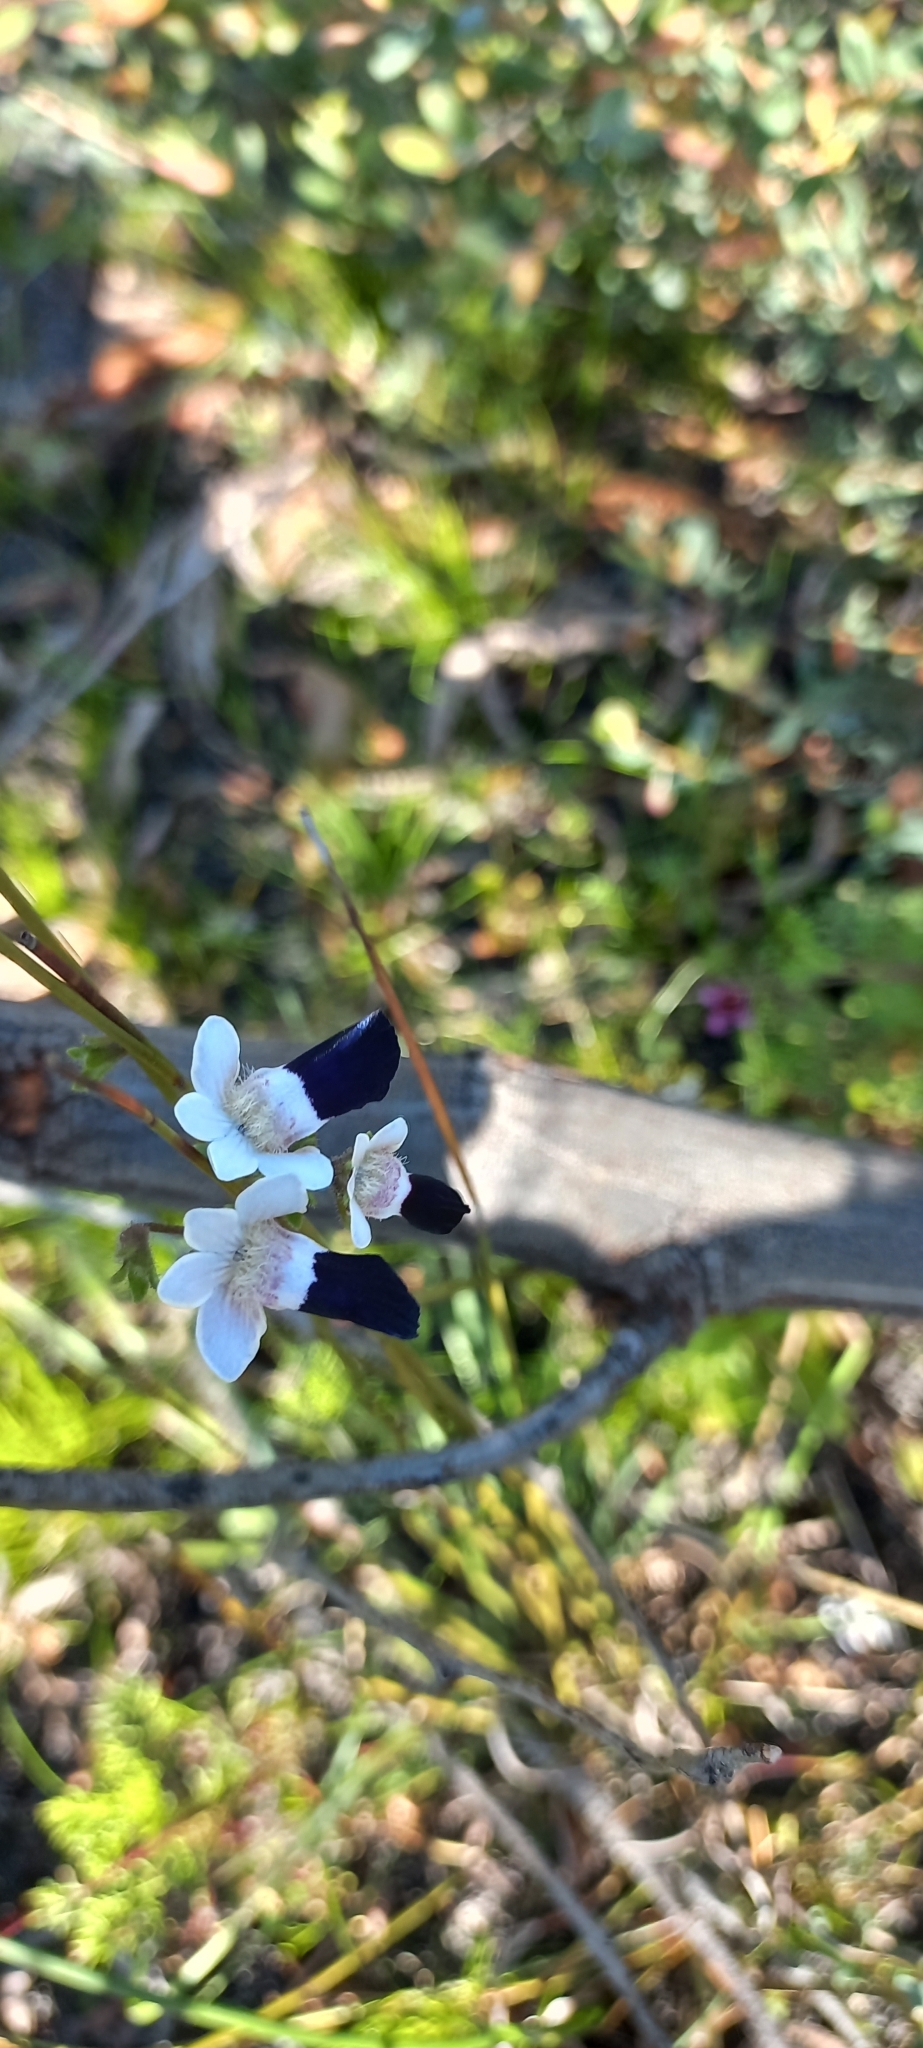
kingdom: Plantae
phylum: Tracheophyta
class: Magnoliopsida
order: Lamiales
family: Scrophulariaceae
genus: Nemesia
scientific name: Nemesia barbata
